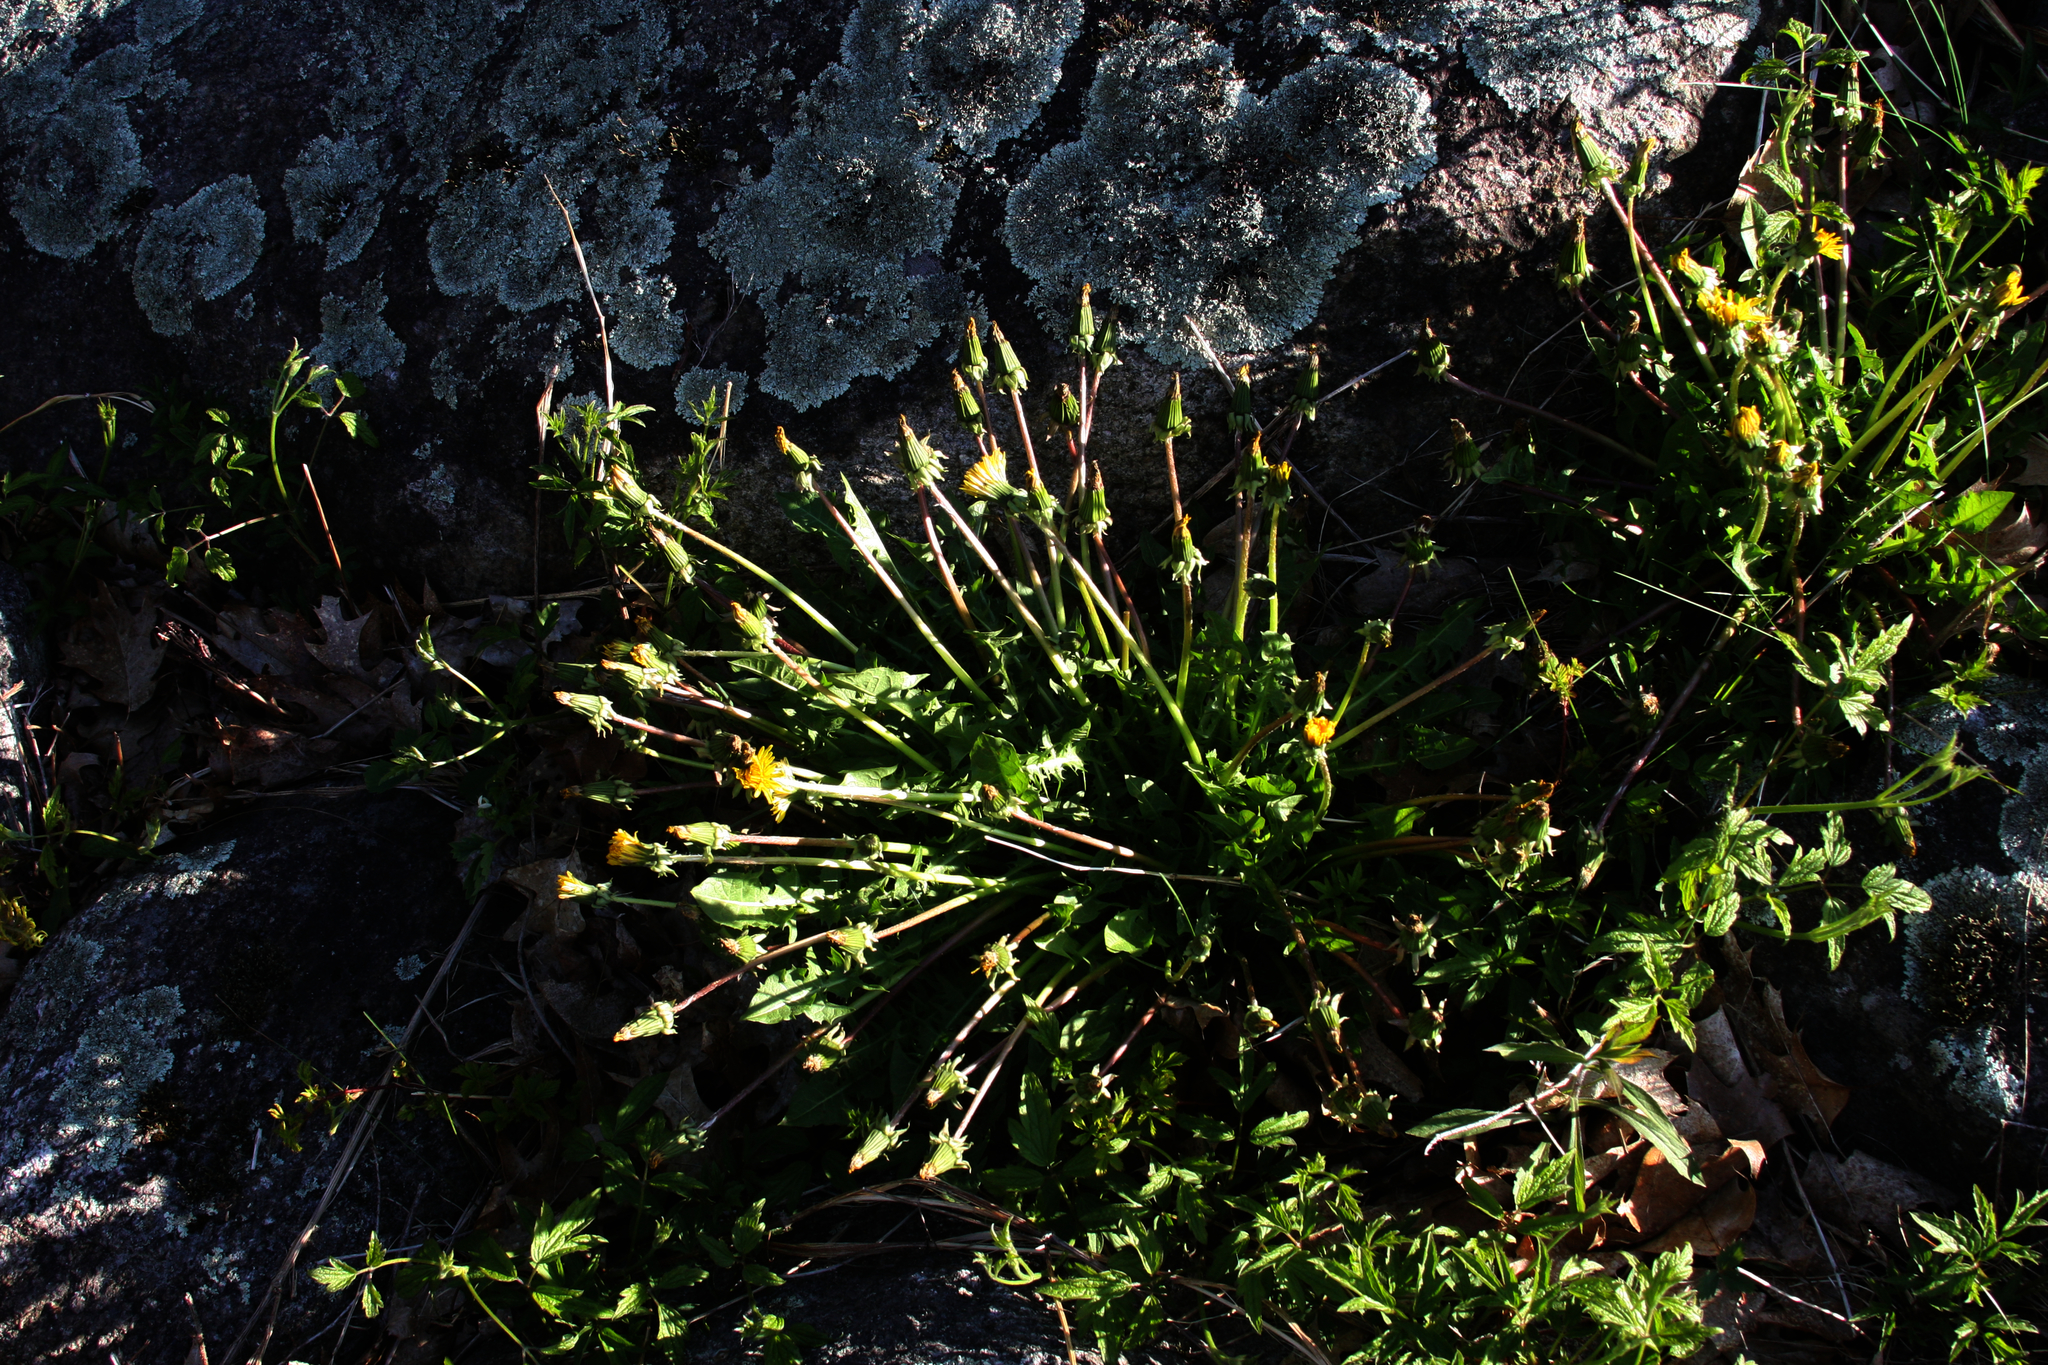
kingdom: Plantae
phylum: Tracheophyta
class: Magnoliopsida
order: Asterales
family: Asteraceae
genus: Taraxacum
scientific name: Taraxacum officinale
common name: Common dandelion
